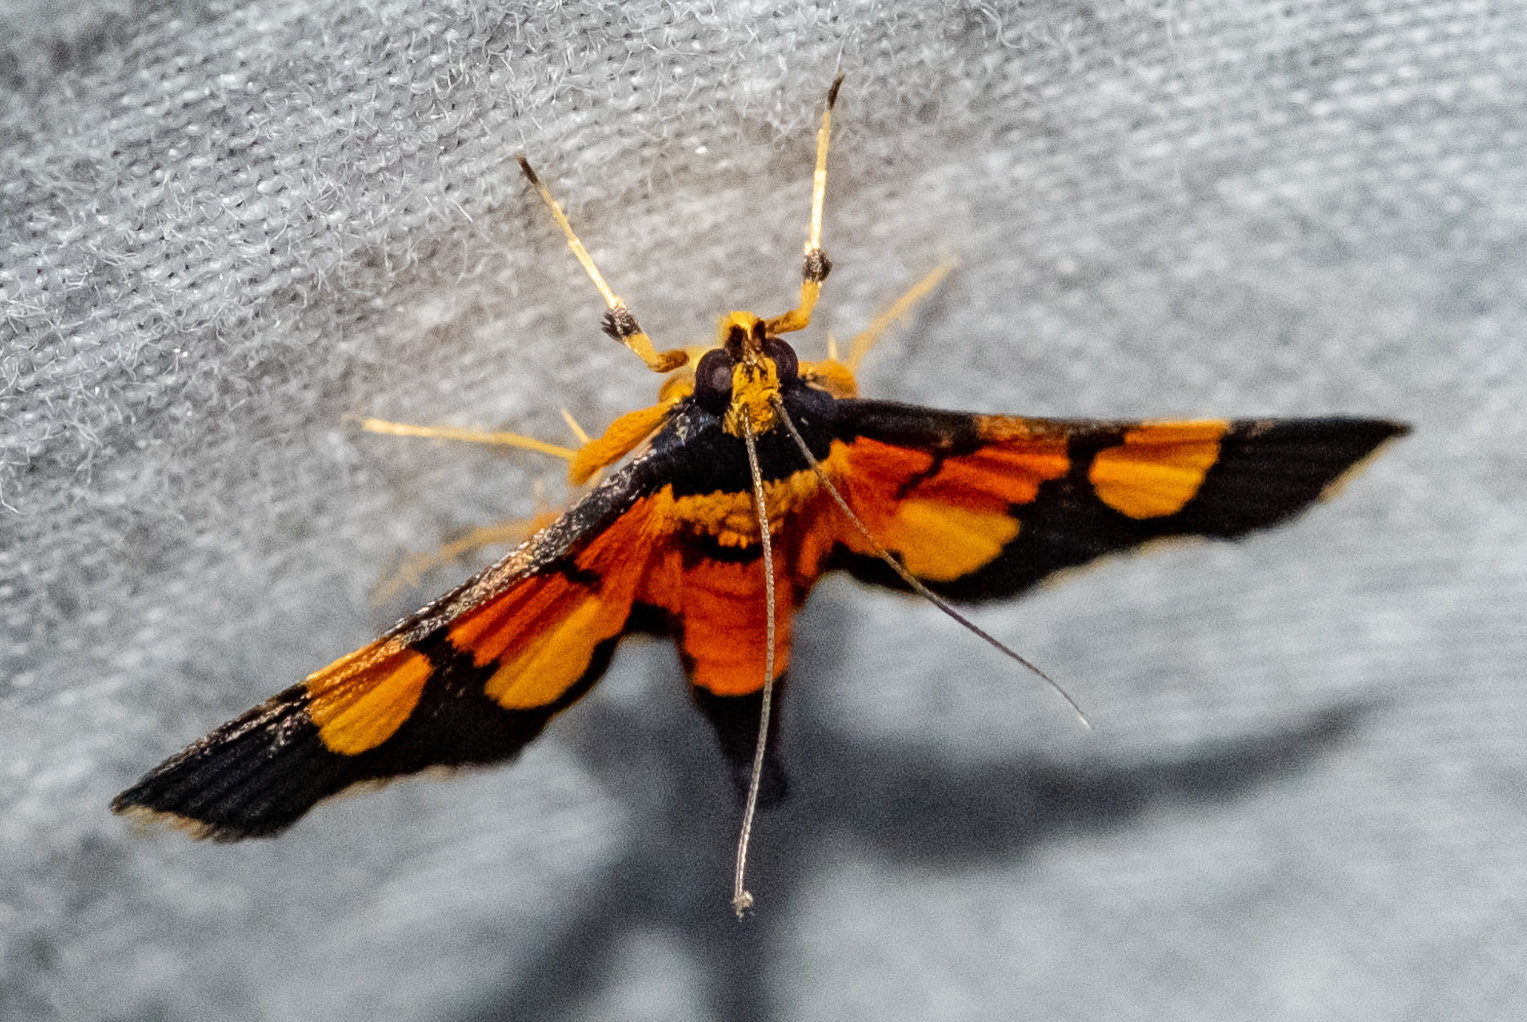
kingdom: Animalia
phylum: Arthropoda
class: Insecta
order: Lepidoptera
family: Crambidae
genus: Aethaloessa
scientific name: Aethaloessa calidalis
